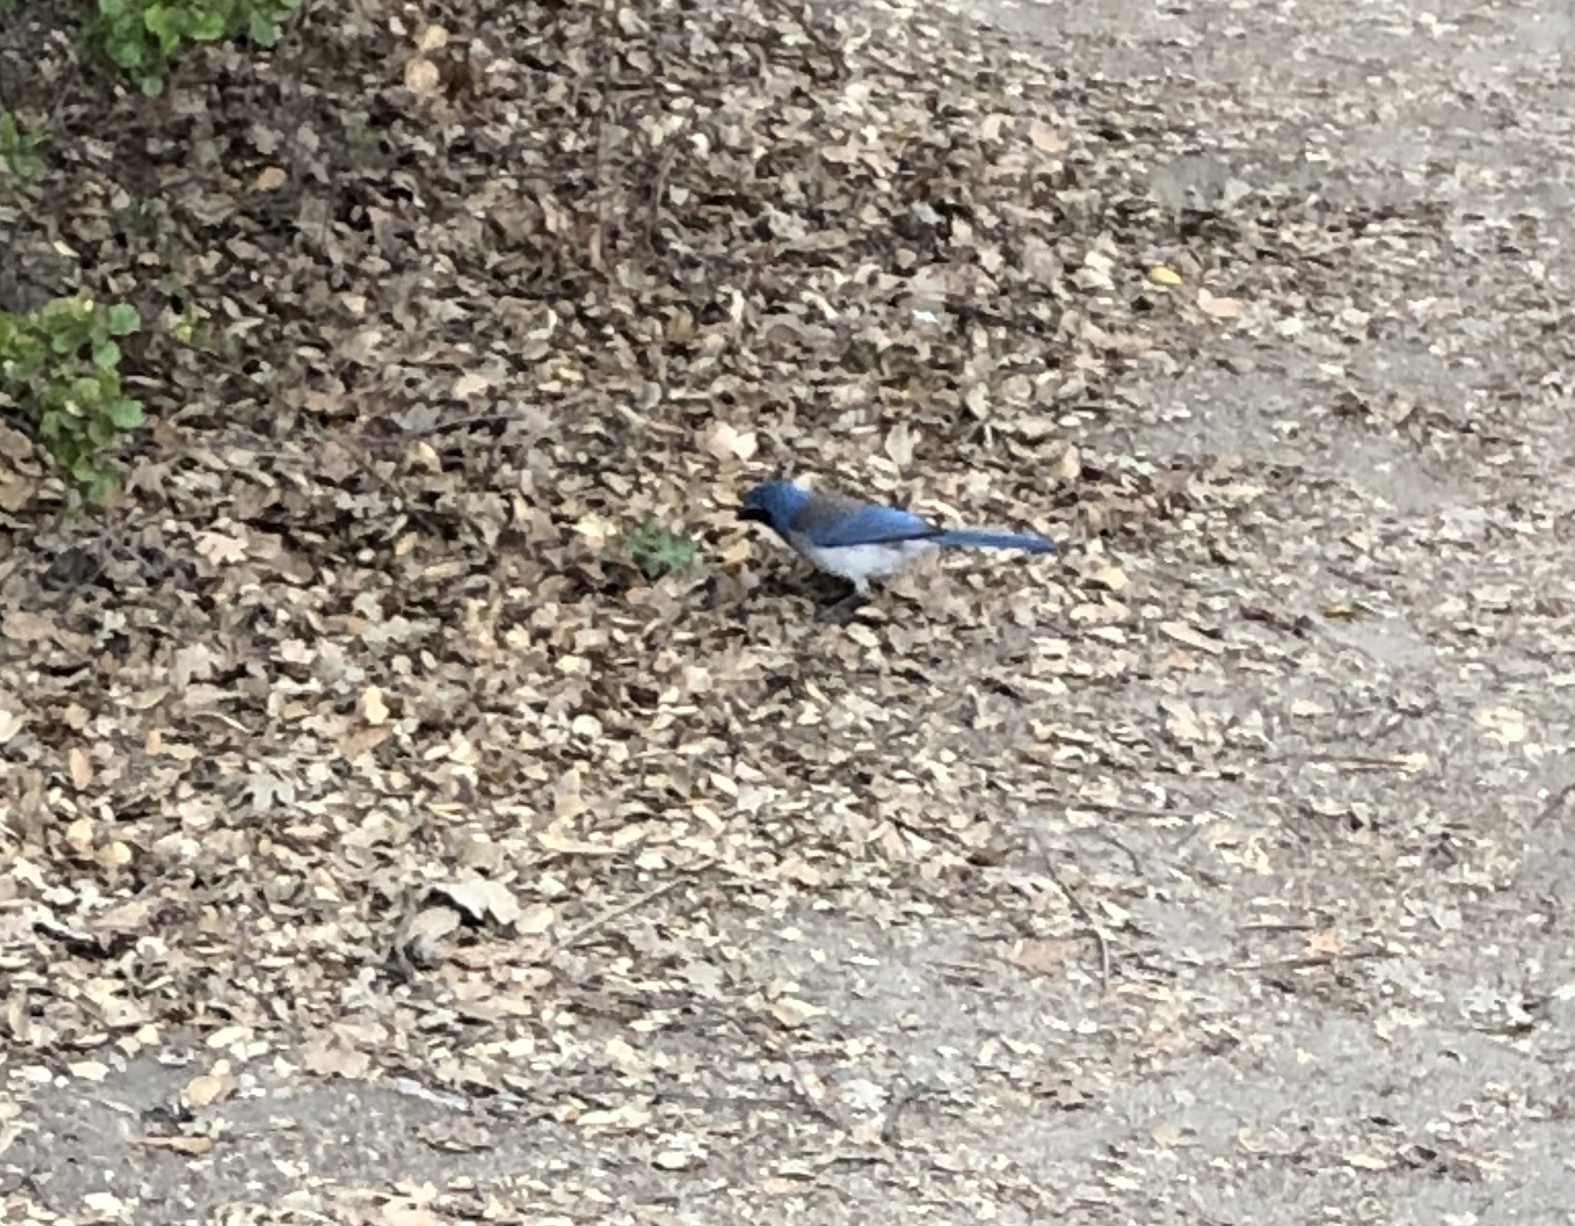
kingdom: Animalia
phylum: Chordata
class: Aves
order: Passeriformes
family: Corvidae
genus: Aphelocoma
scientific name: Aphelocoma californica
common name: California scrub-jay
